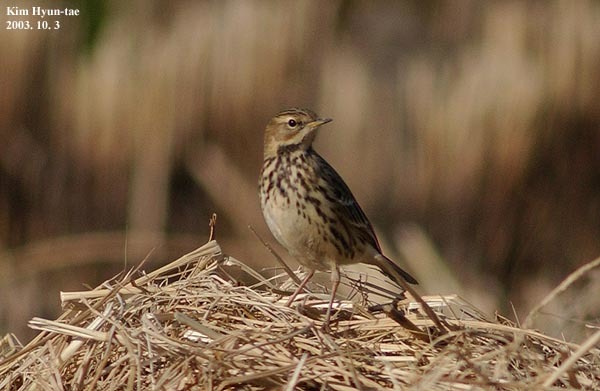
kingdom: Animalia
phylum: Chordata
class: Aves
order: Passeriformes
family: Motacillidae
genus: Anthus
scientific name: Anthus cervinus
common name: Red-throated pipit
